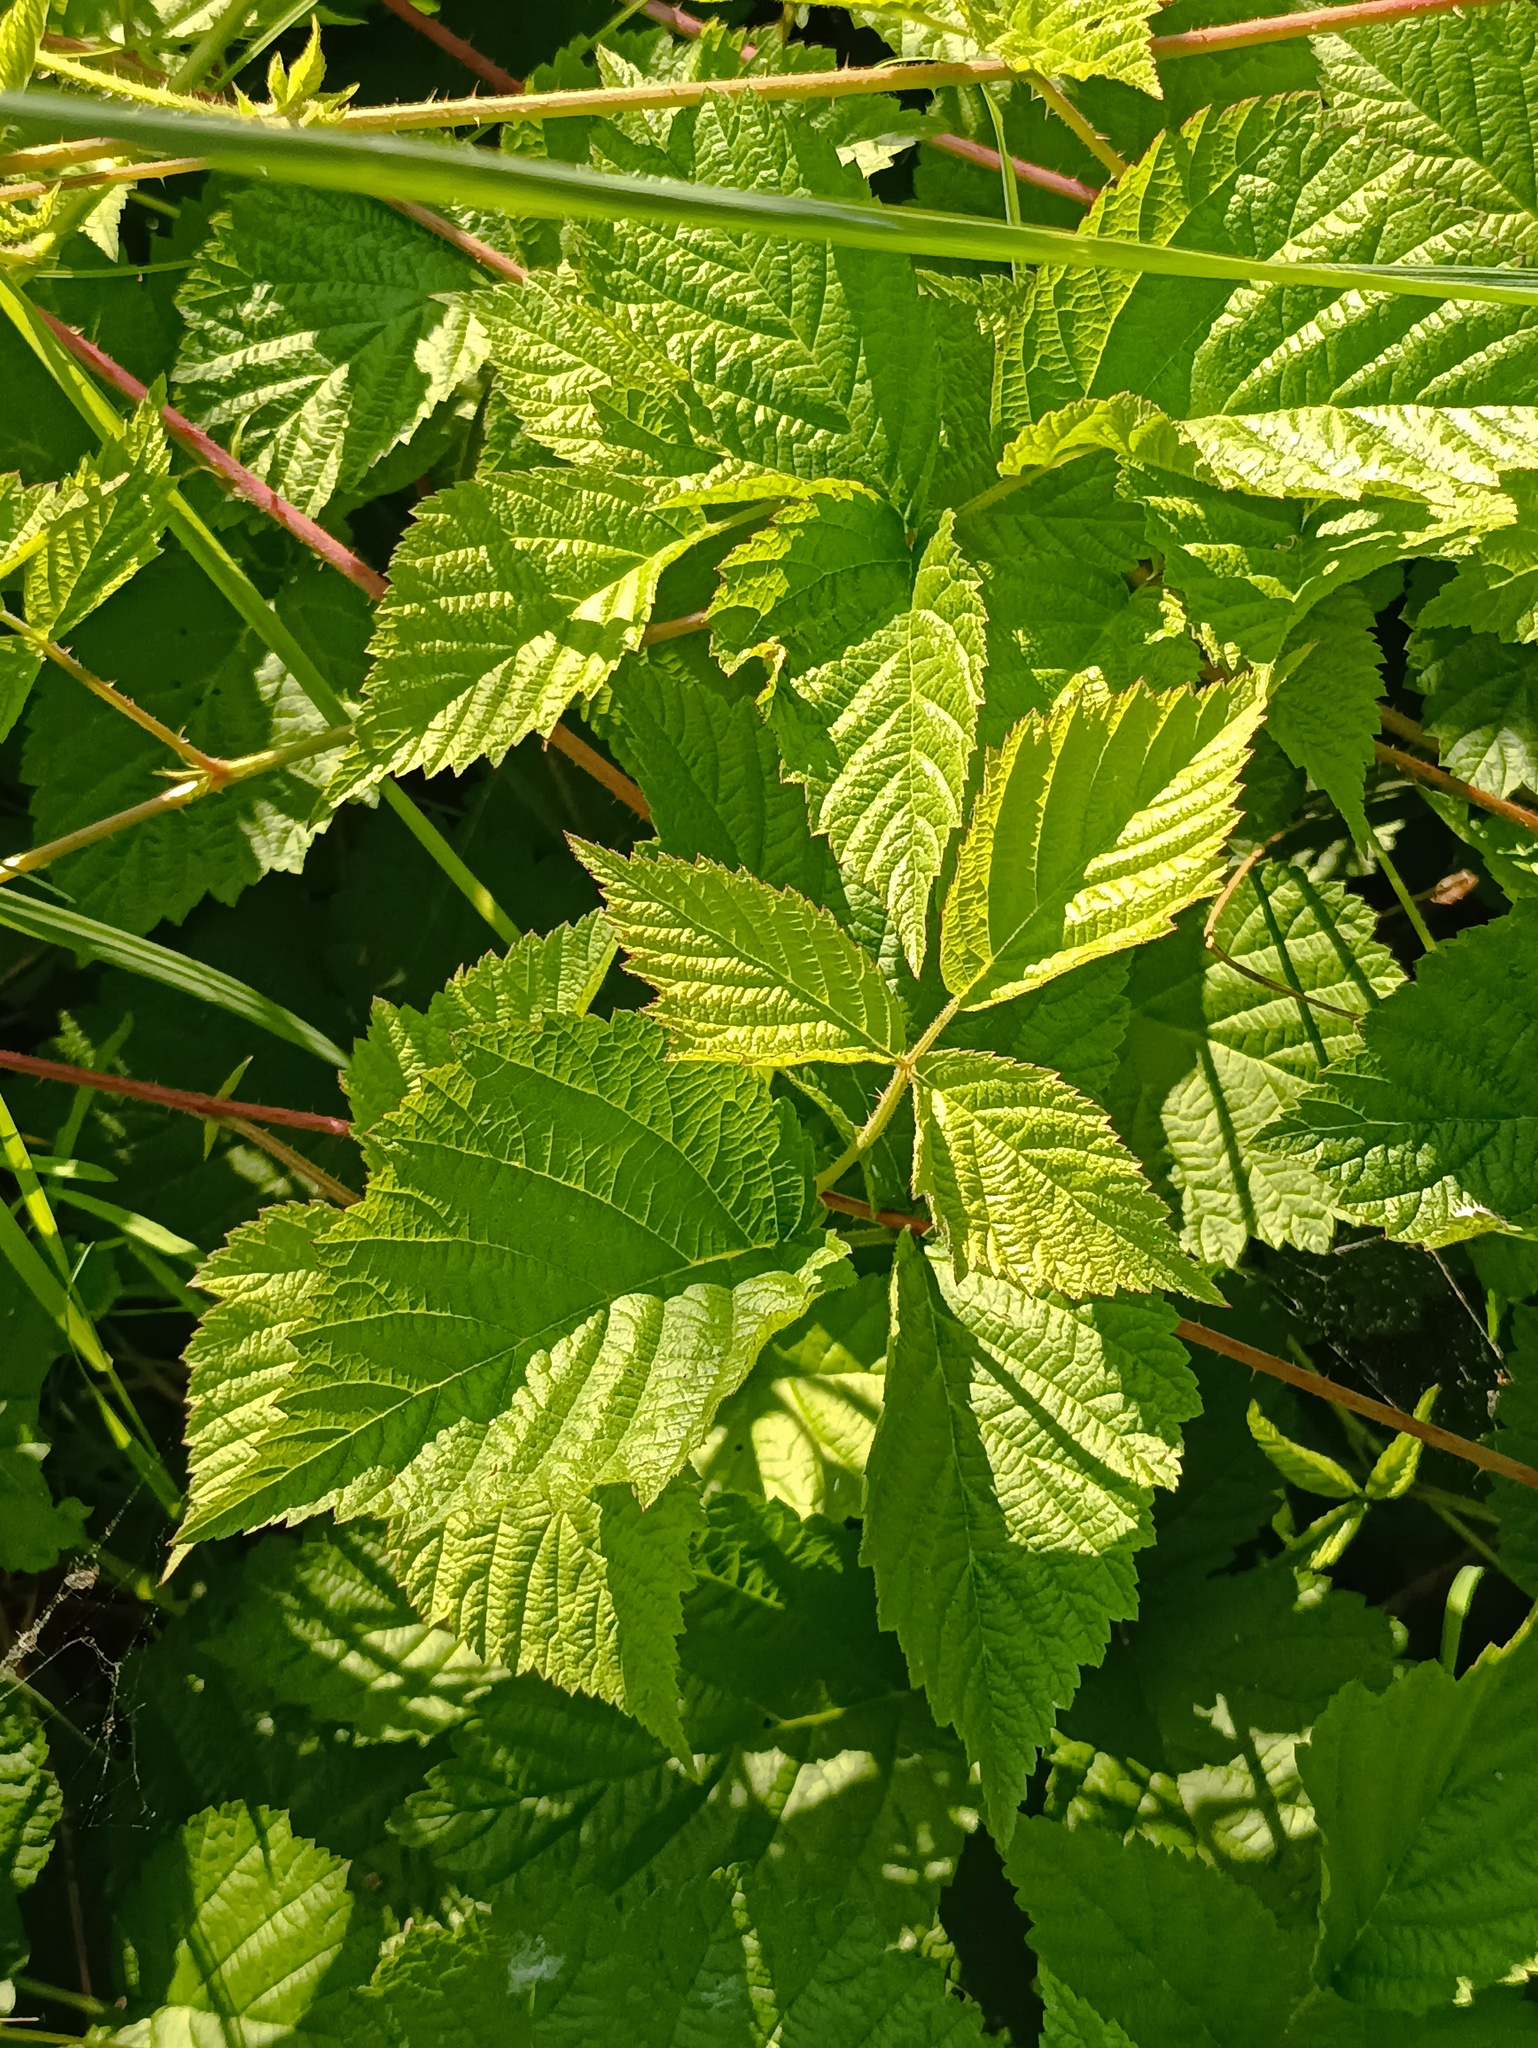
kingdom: Plantae
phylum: Tracheophyta
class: Magnoliopsida
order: Rosales
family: Rosaceae
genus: Rubus
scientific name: Rubus caesius
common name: Dewberry
